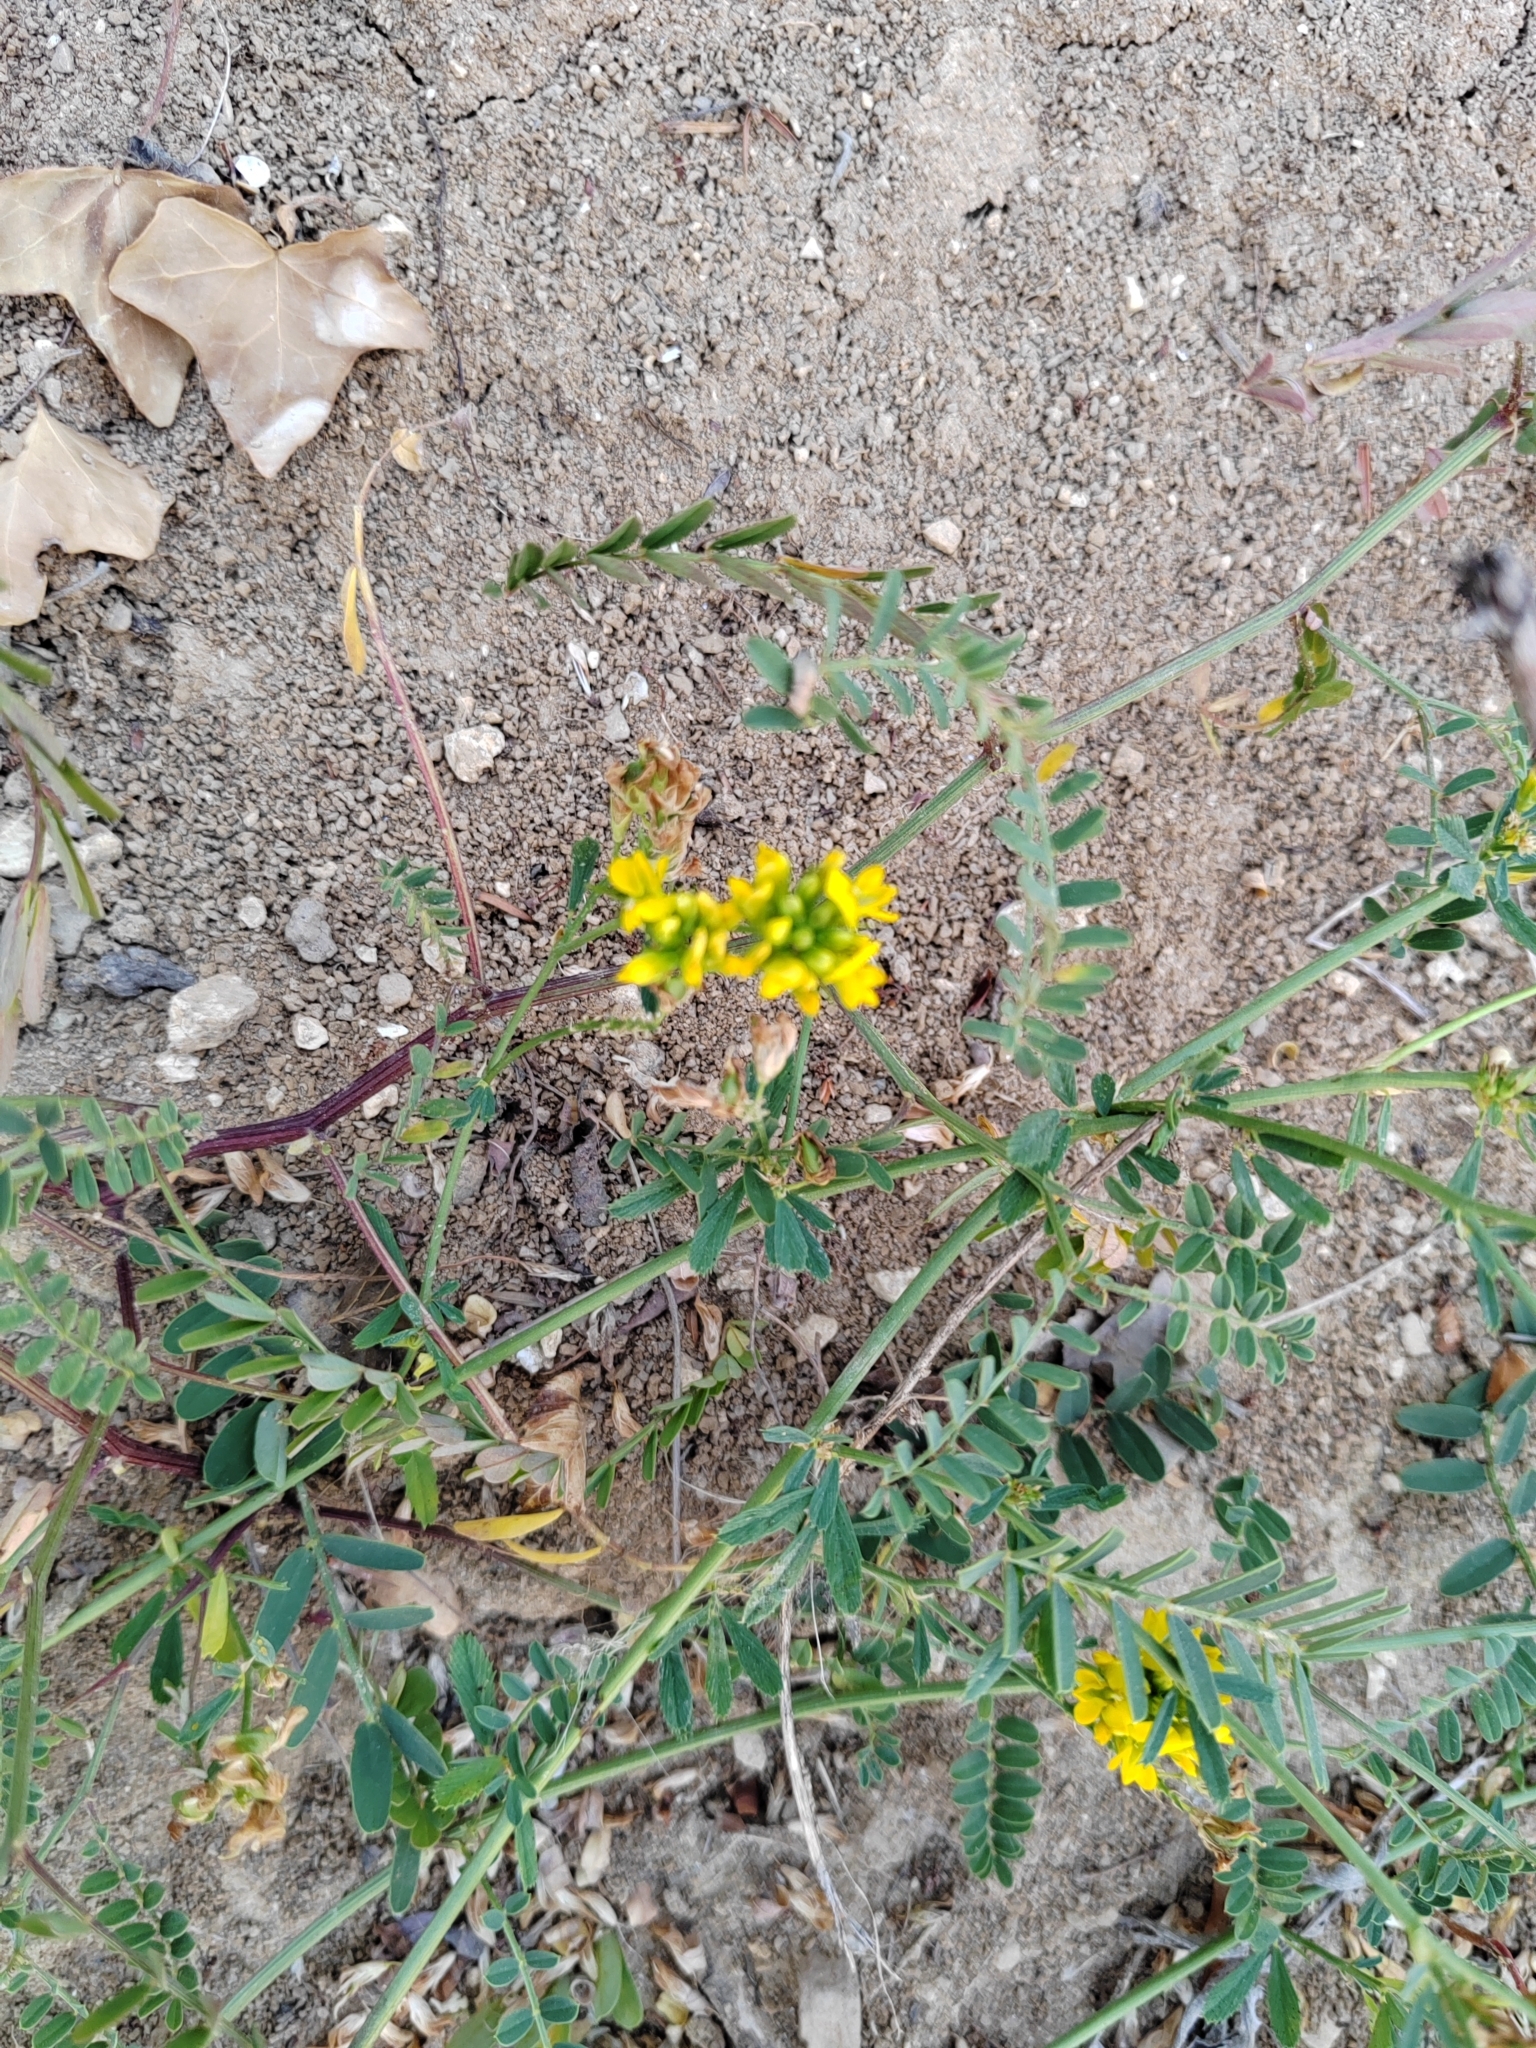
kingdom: Plantae
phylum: Tracheophyta
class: Magnoliopsida
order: Fabales
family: Fabaceae
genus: Medicago
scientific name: Medicago falcata
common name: Sickle medick
